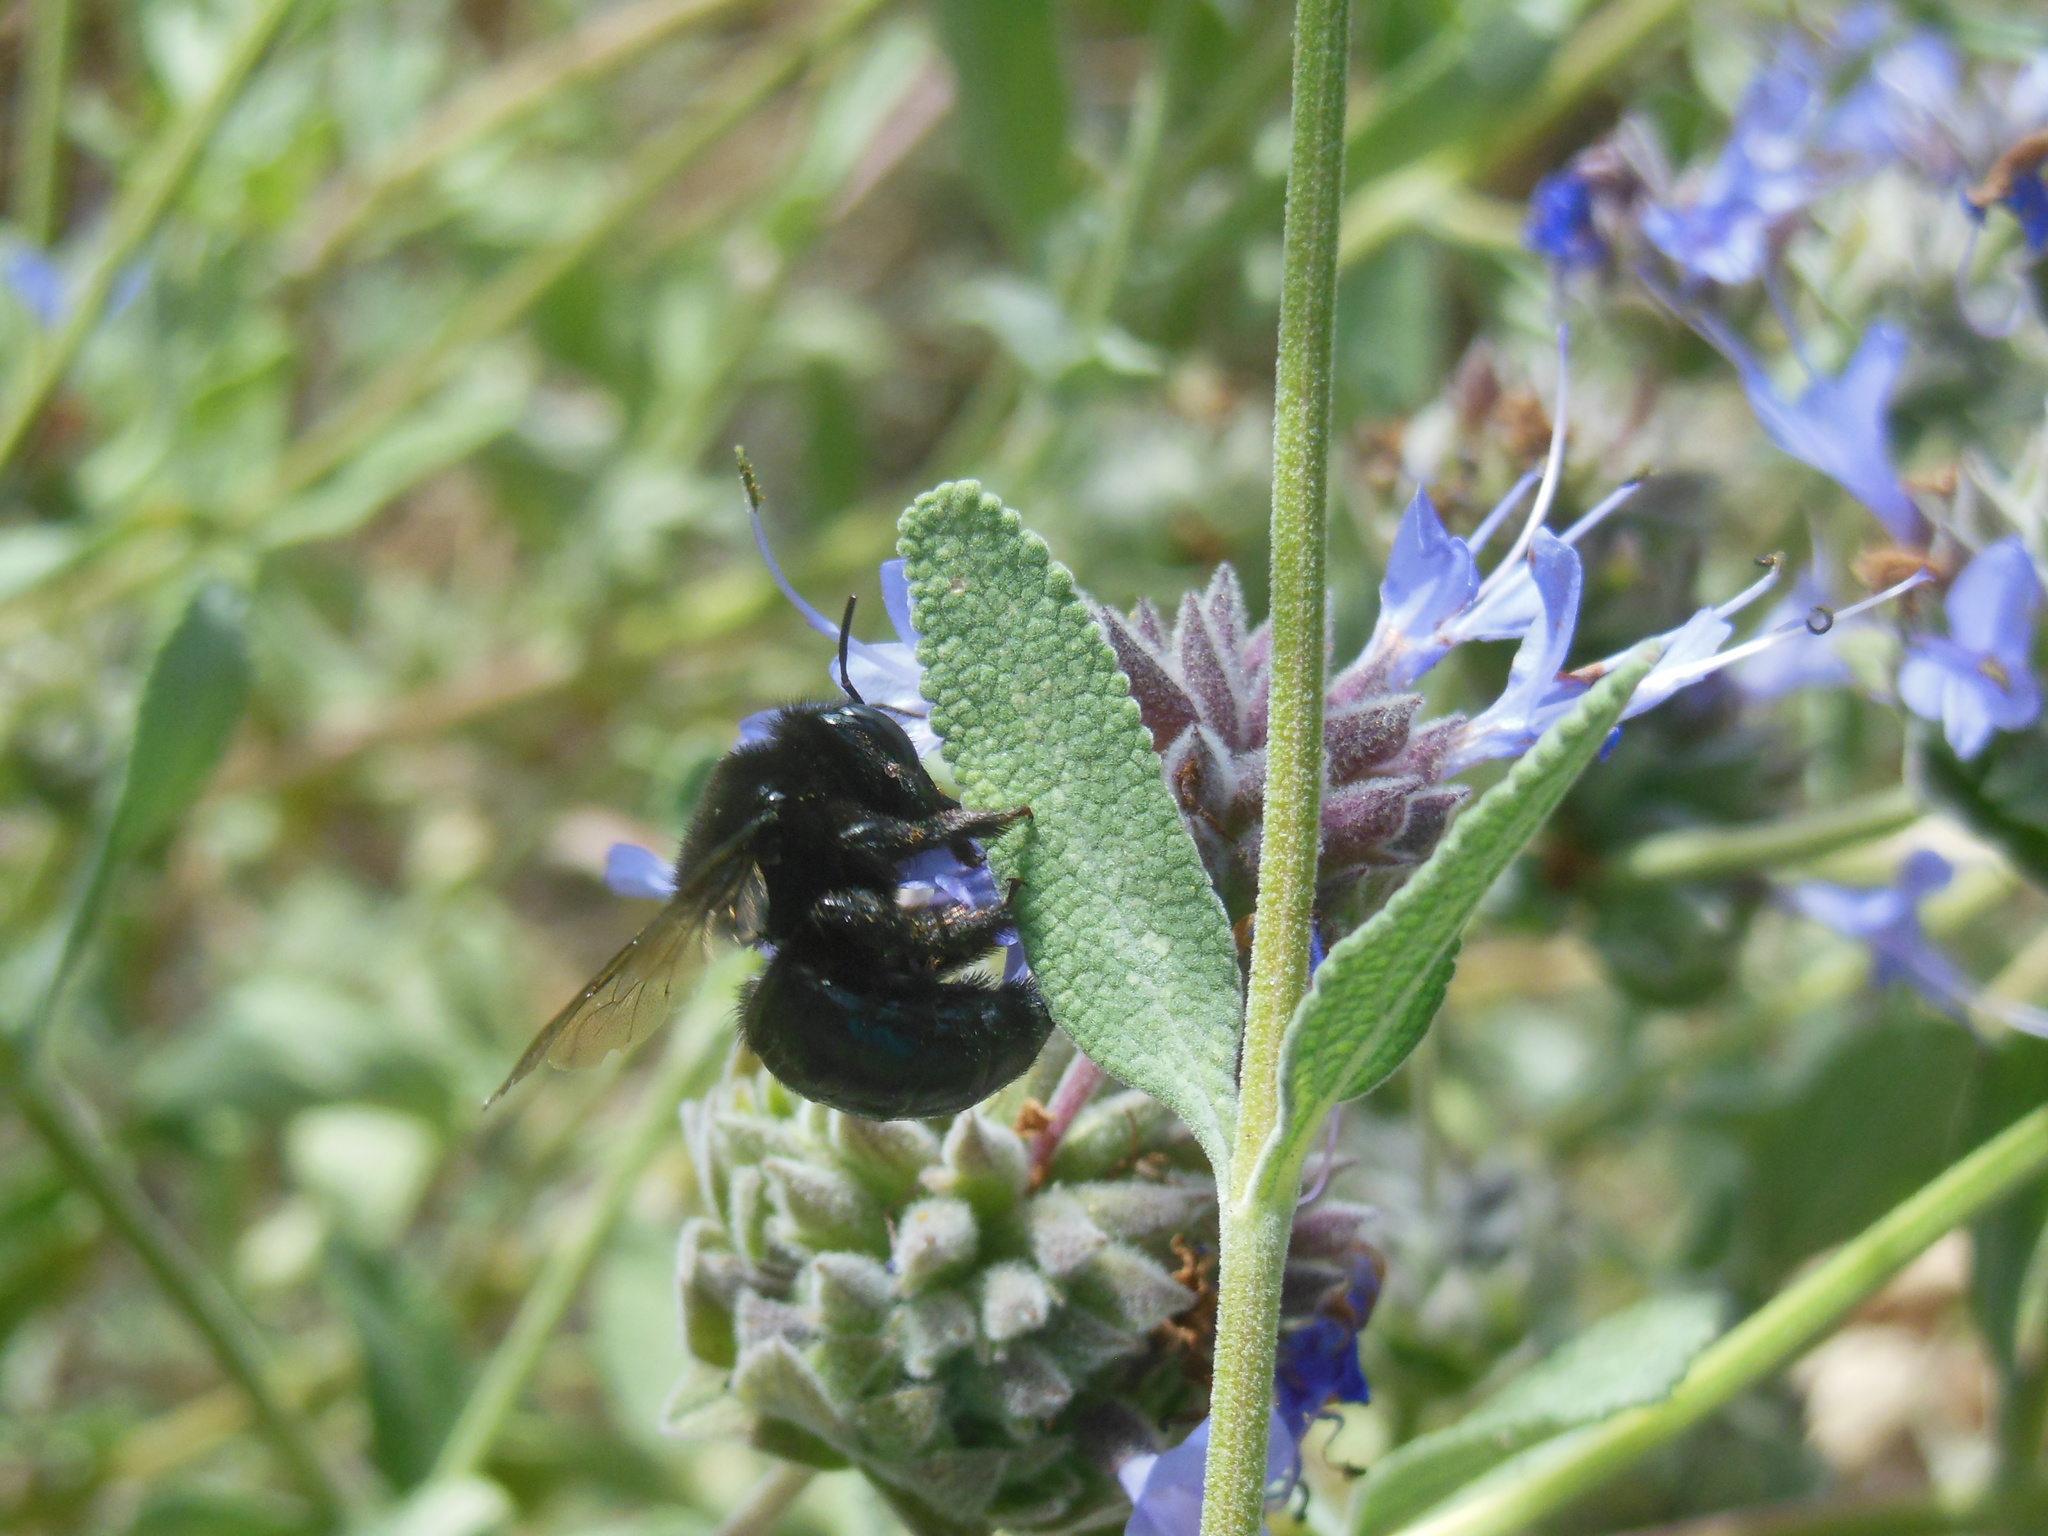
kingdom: Animalia
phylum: Arthropoda
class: Insecta
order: Hymenoptera
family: Apidae
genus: Xylocopa
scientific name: Xylocopa tabaniformis
